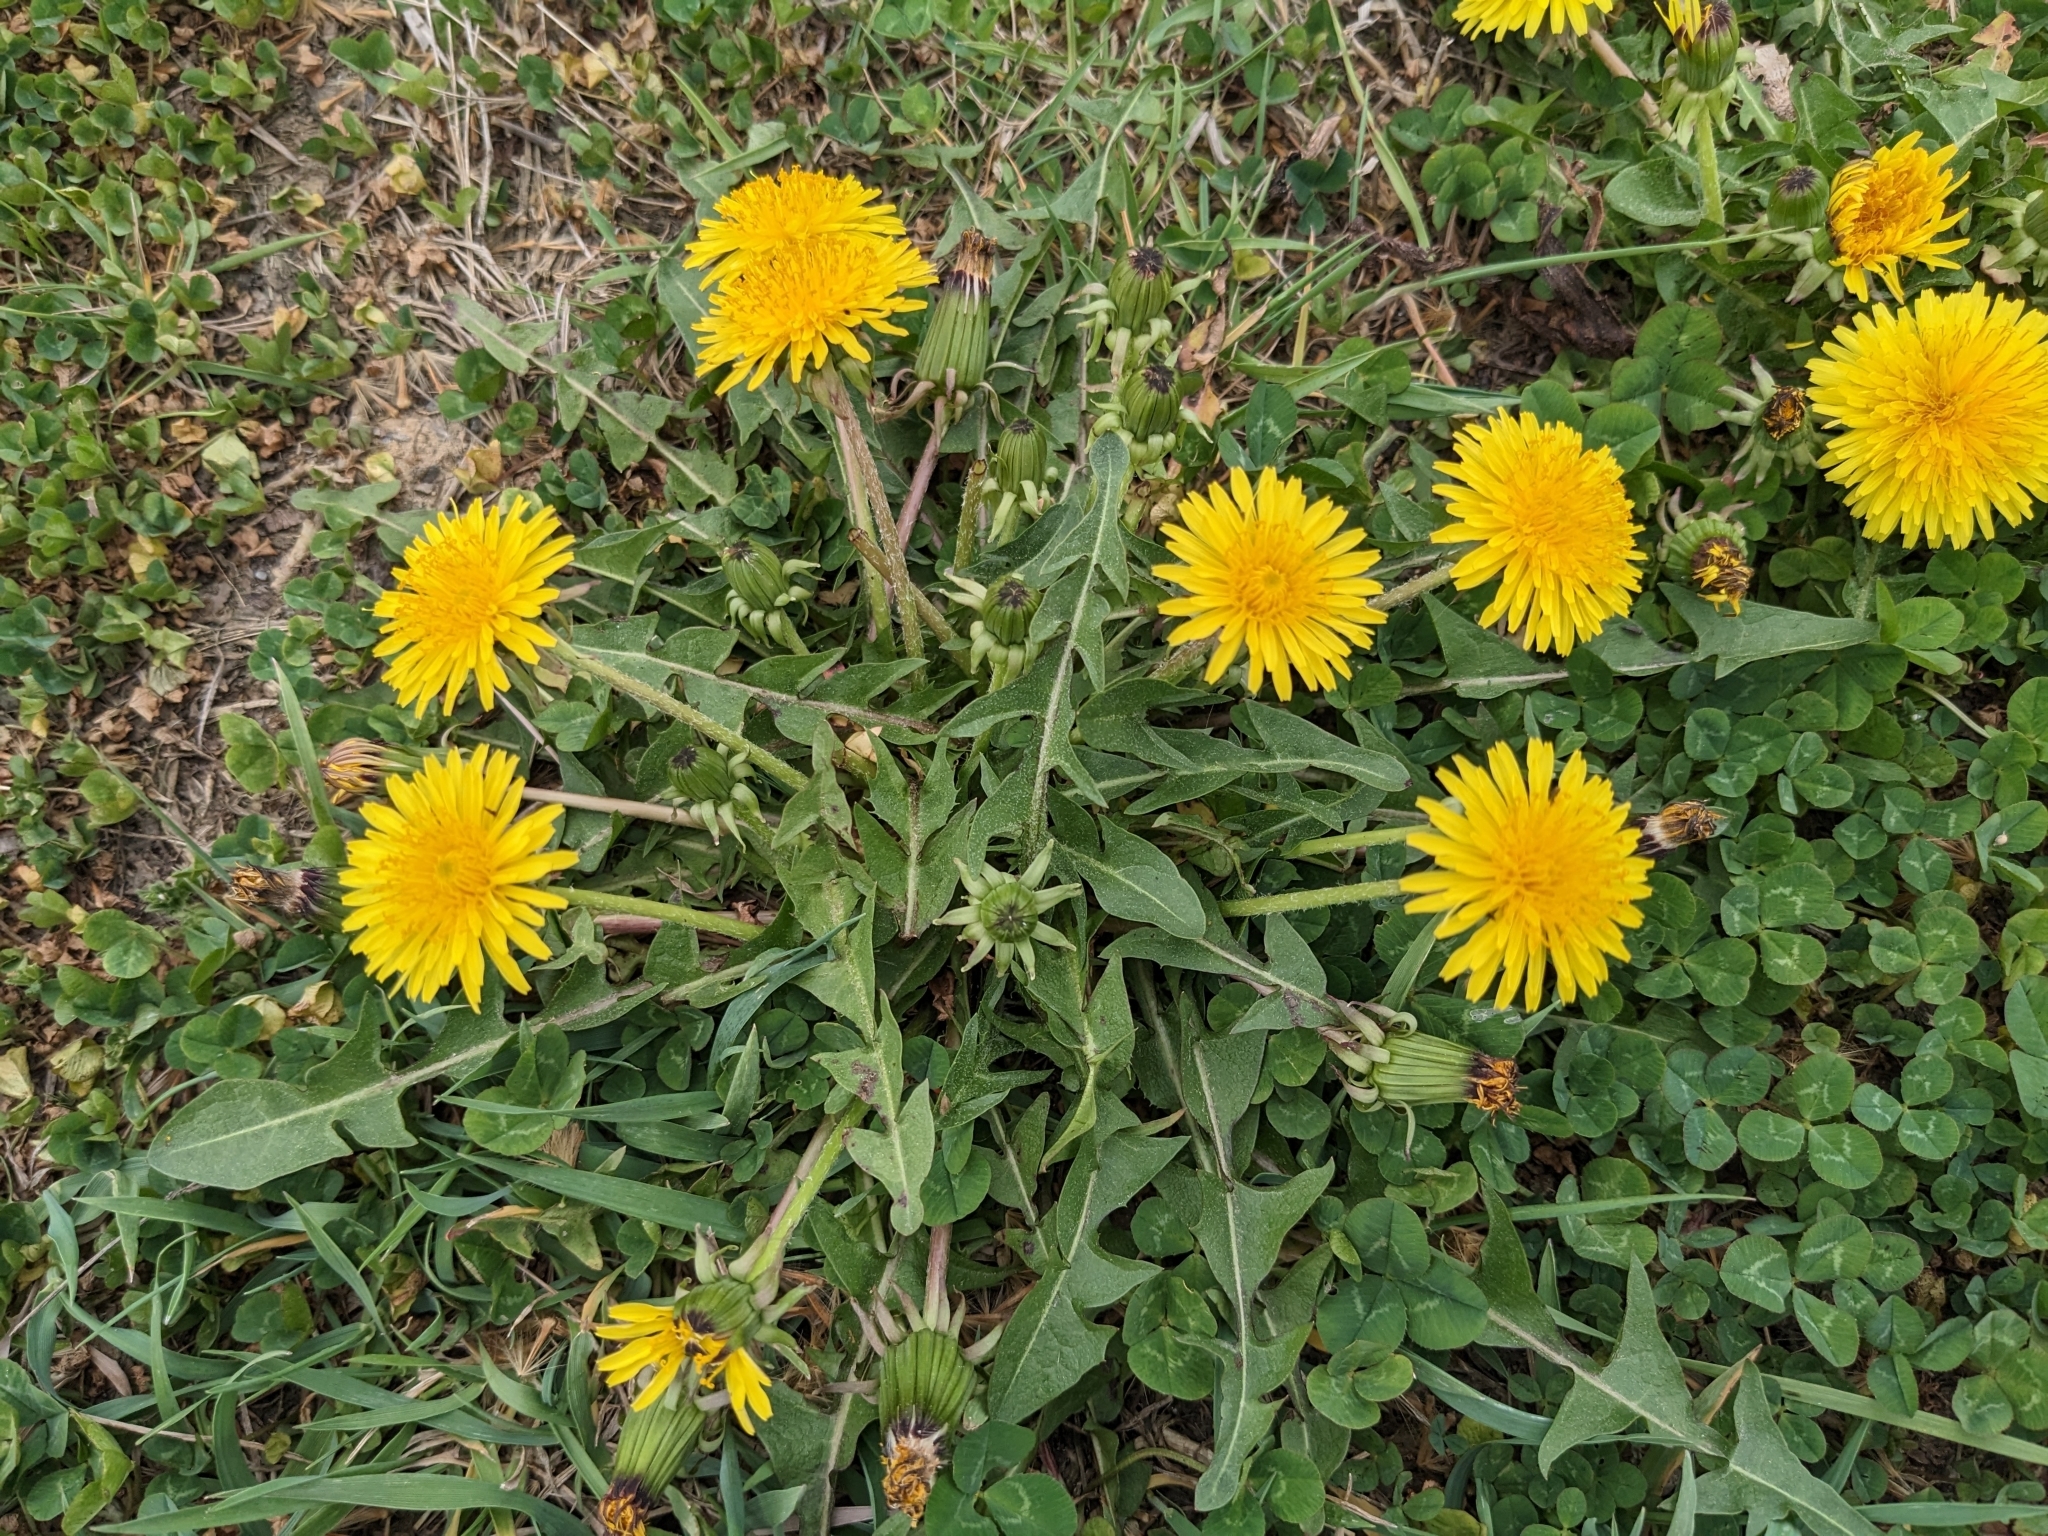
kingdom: Plantae
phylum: Tracheophyta
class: Magnoliopsida
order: Asterales
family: Asteraceae
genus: Taraxacum
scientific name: Taraxacum officinale
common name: Common dandelion
